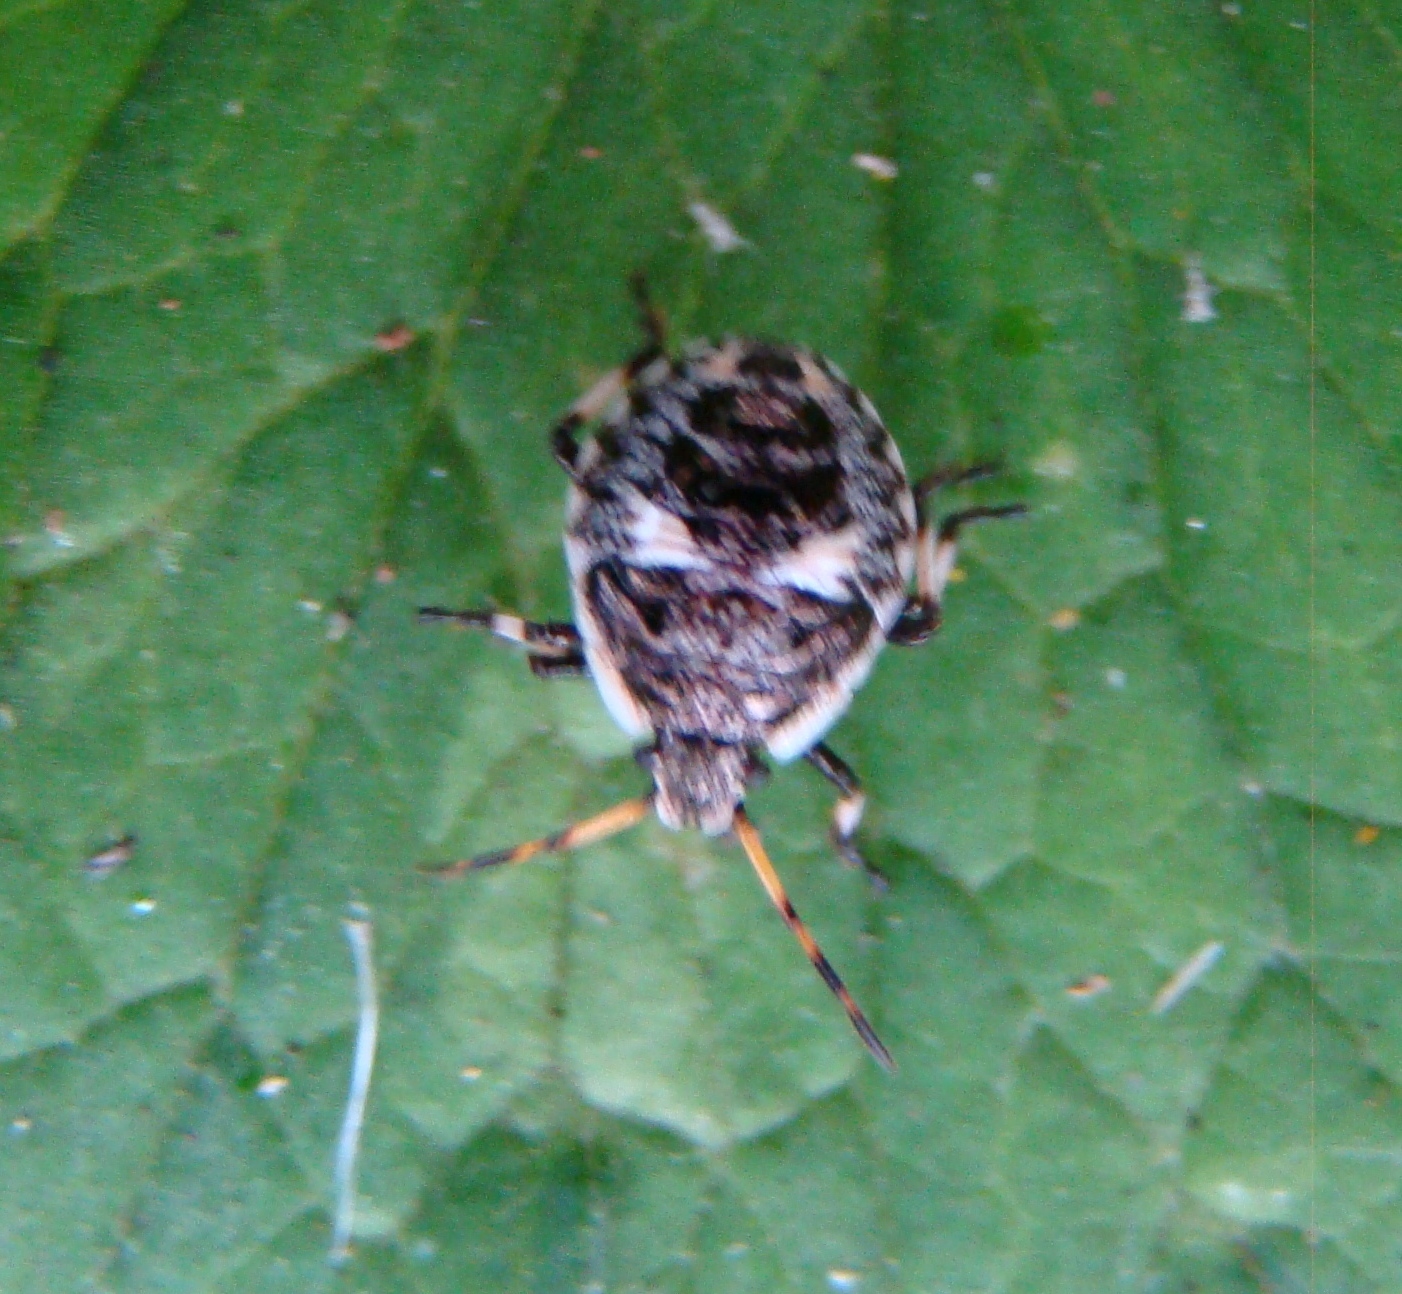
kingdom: Animalia
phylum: Arthropoda
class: Insecta
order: Hemiptera
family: Pentatomidae
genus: Cermatulus
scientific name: Cermatulus nasalis
